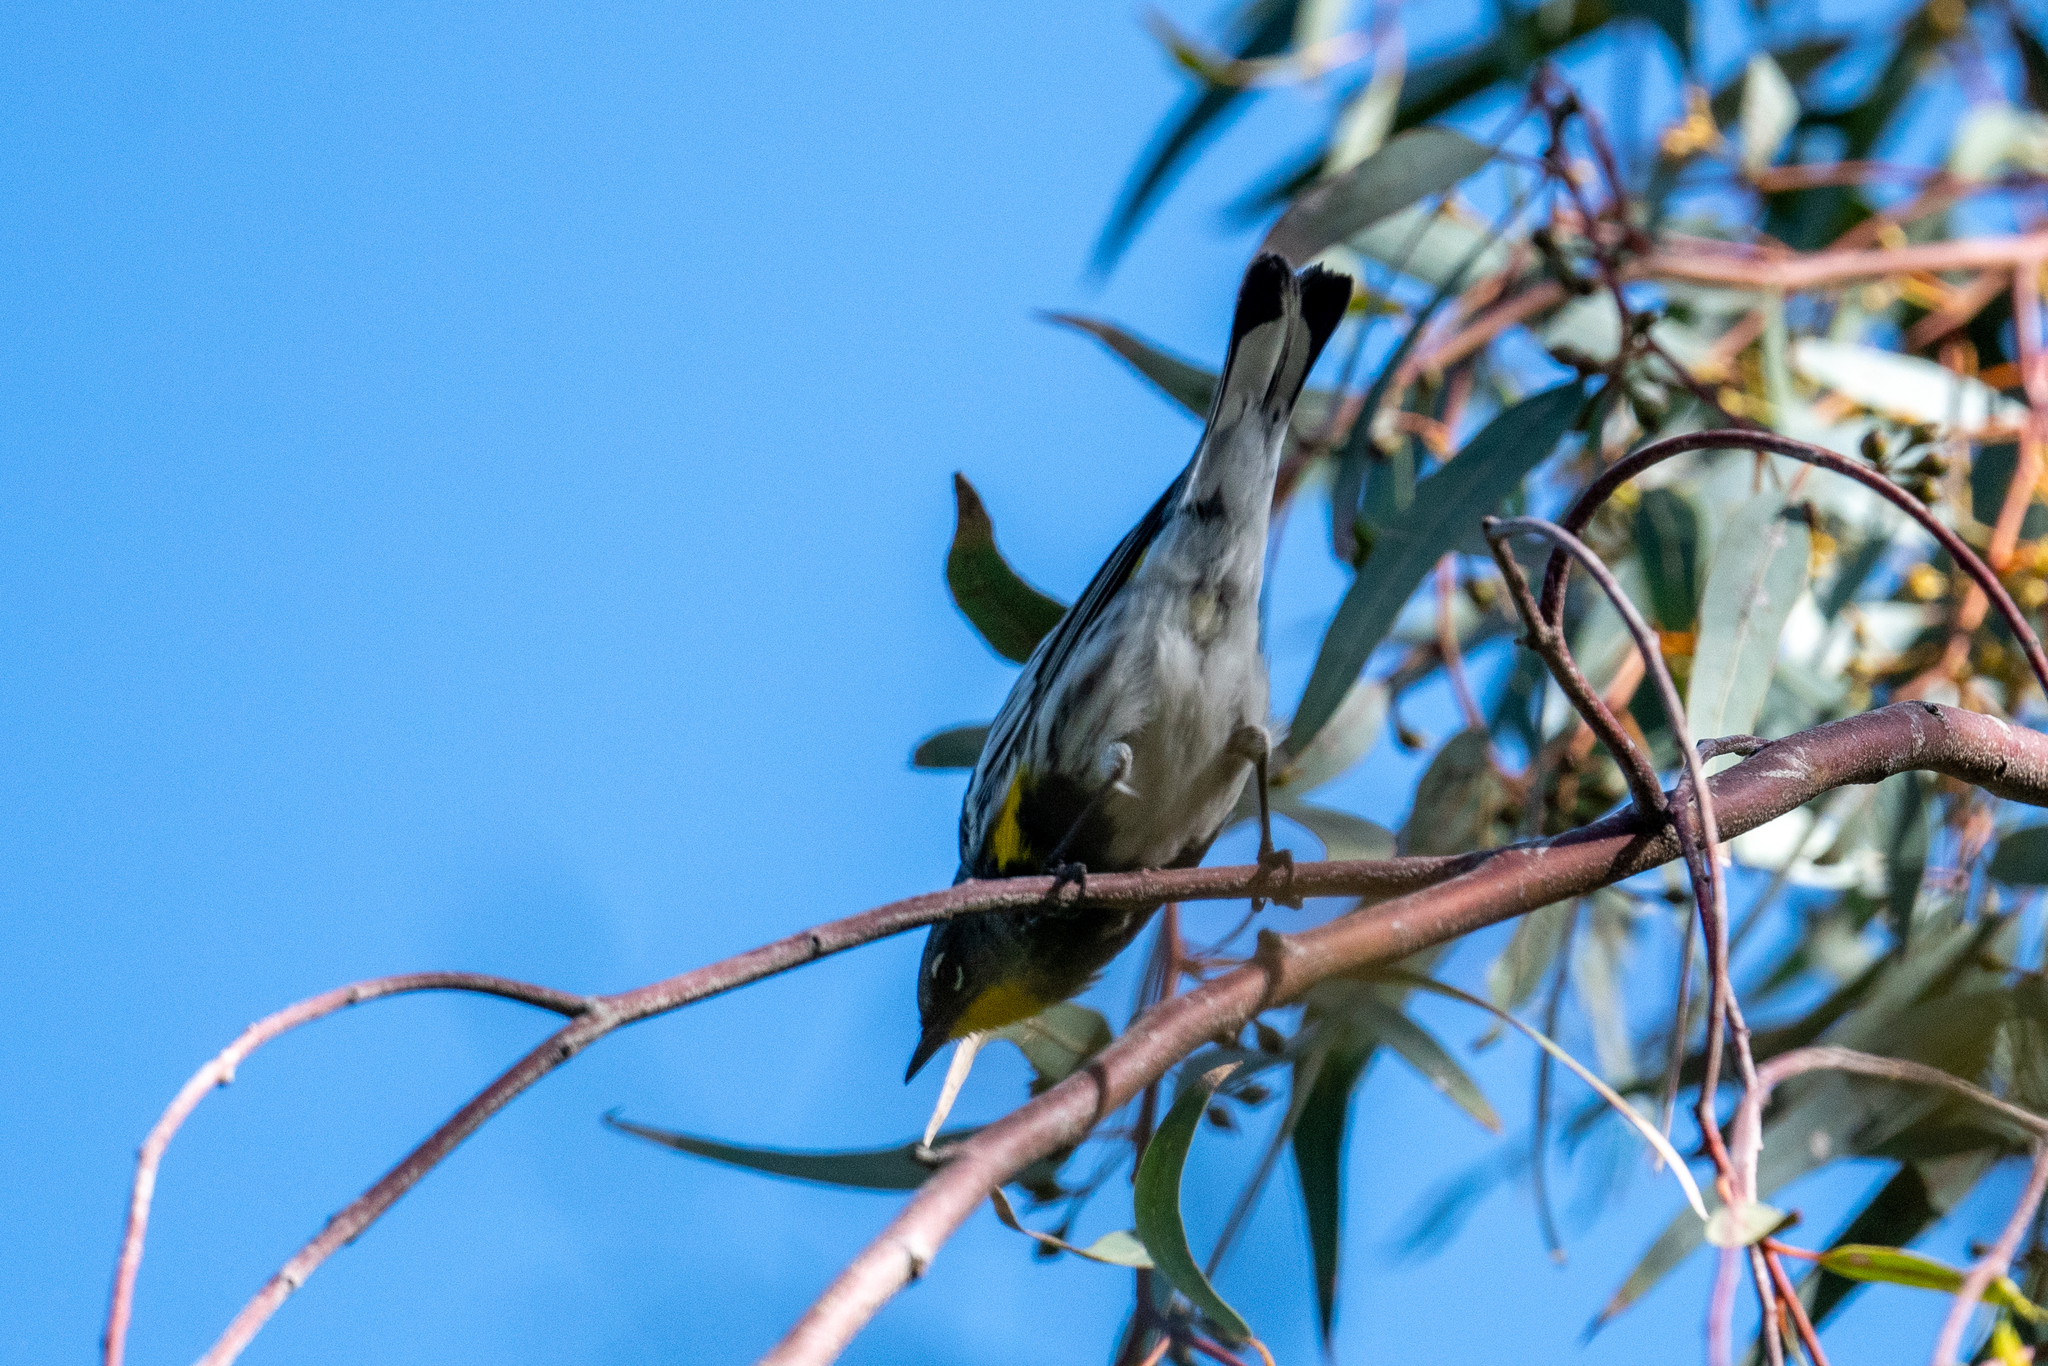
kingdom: Animalia
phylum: Chordata
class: Aves
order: Passeriformes
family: Parulidae
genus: Setophaga
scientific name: Setophaga coronata
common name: Myrtle warbler
